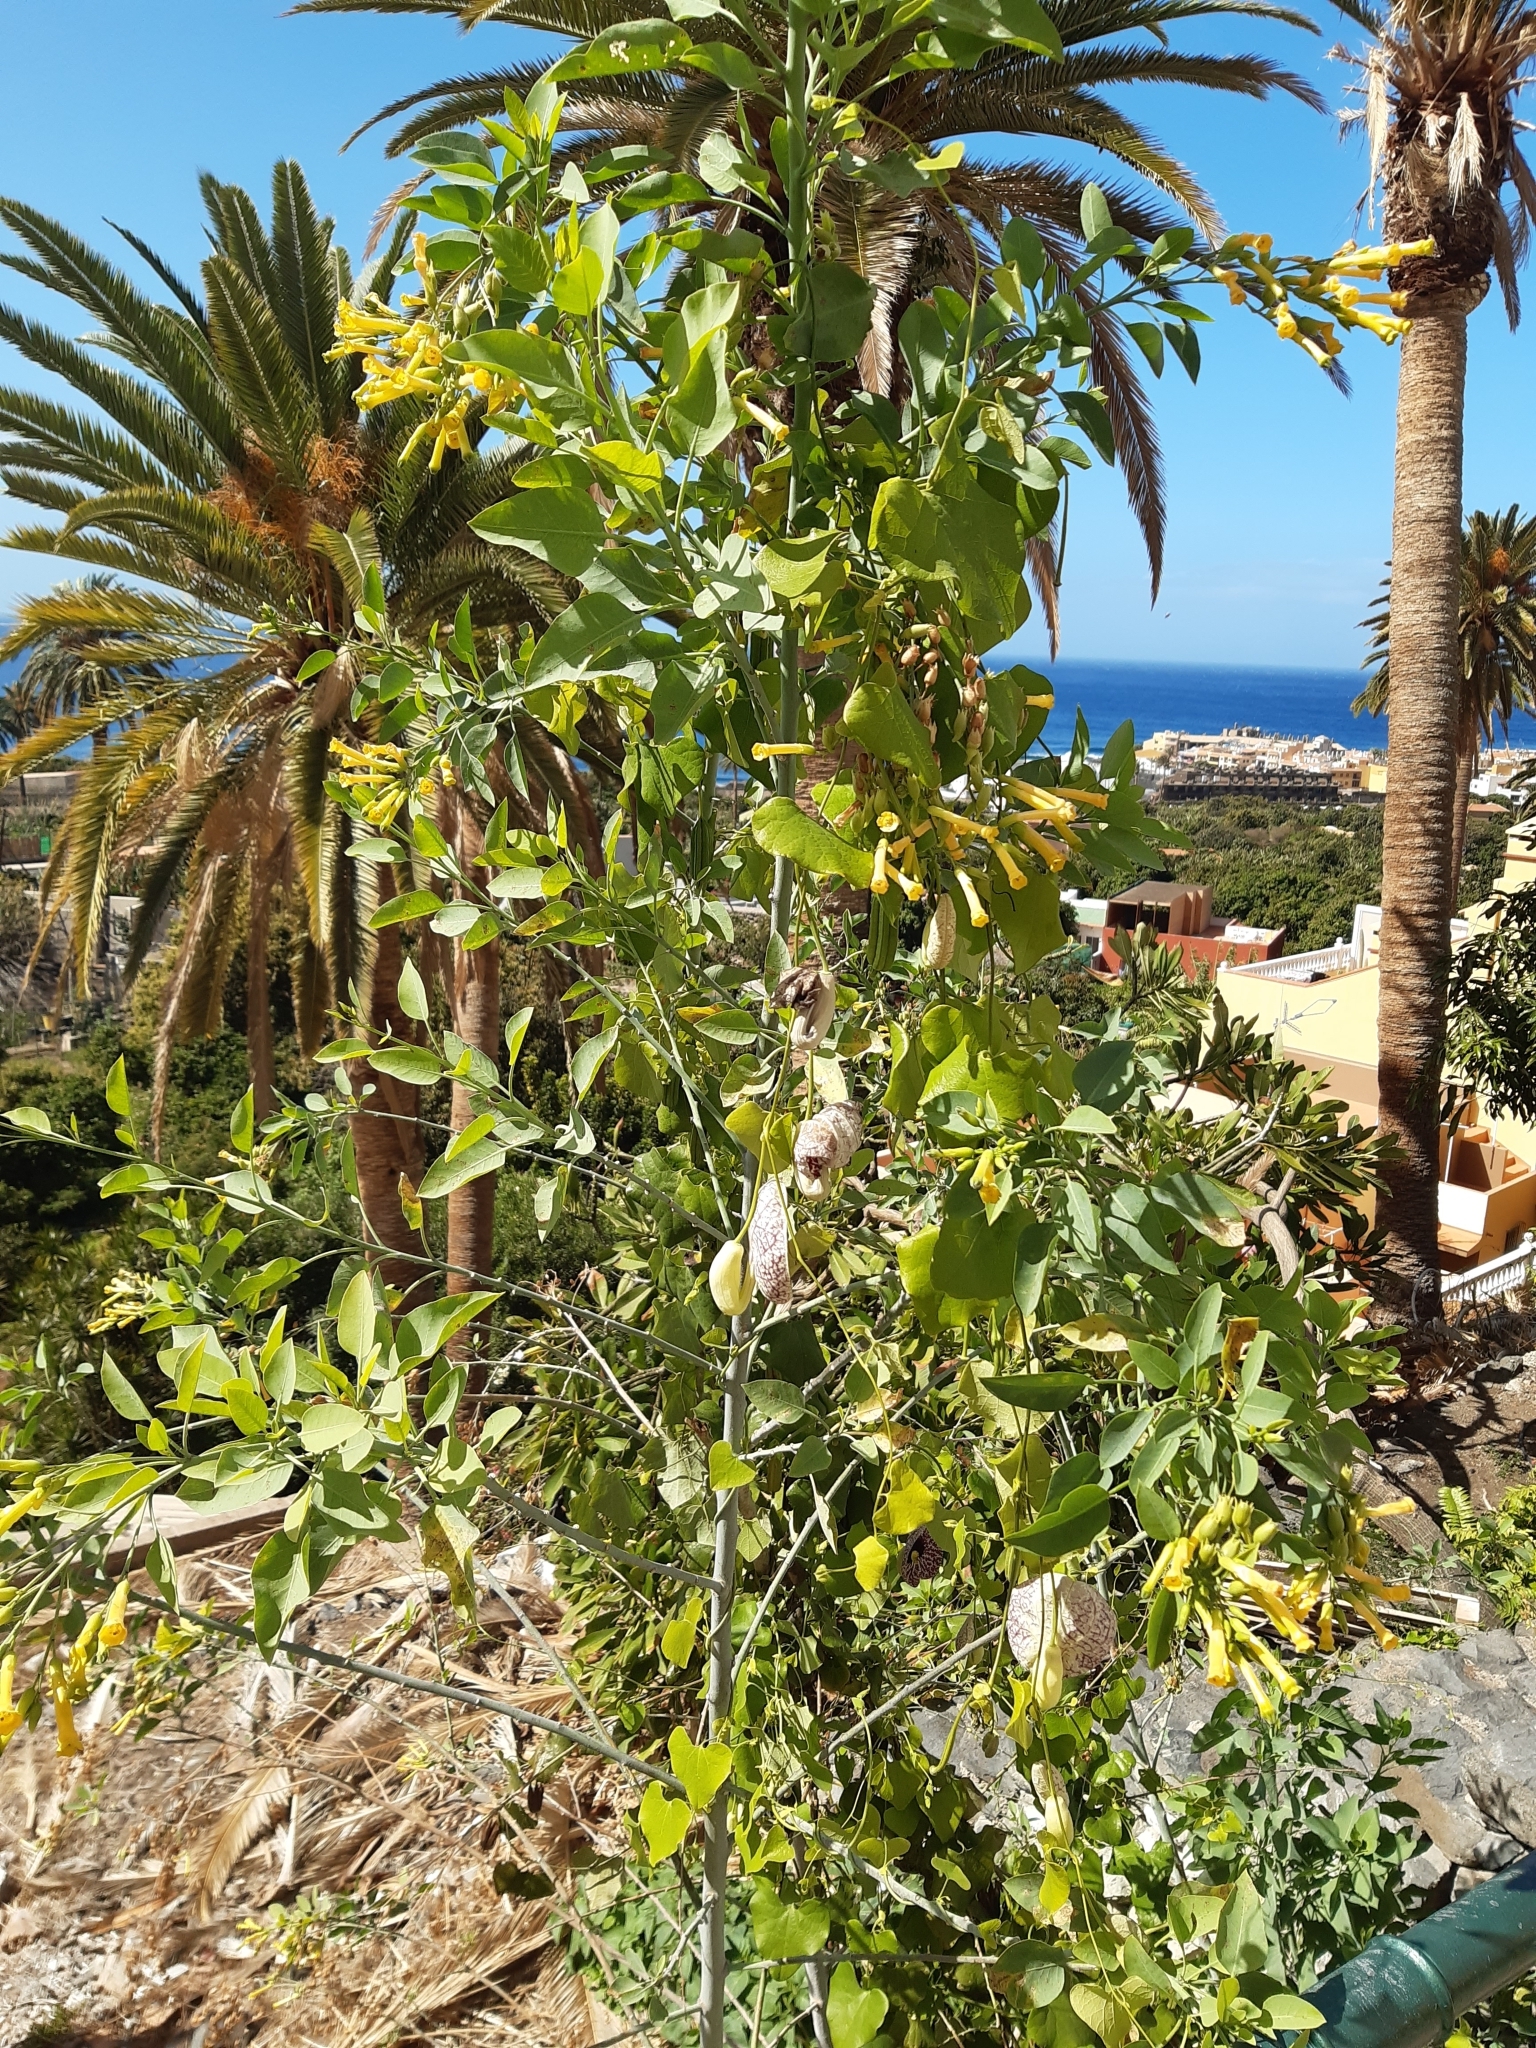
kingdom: Plantae
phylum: Tracheophyta
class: Magnoliopsida
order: Solanales
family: Solanaceae
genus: Nicotiana
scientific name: Nicotiana glauca
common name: Tree tobacco
